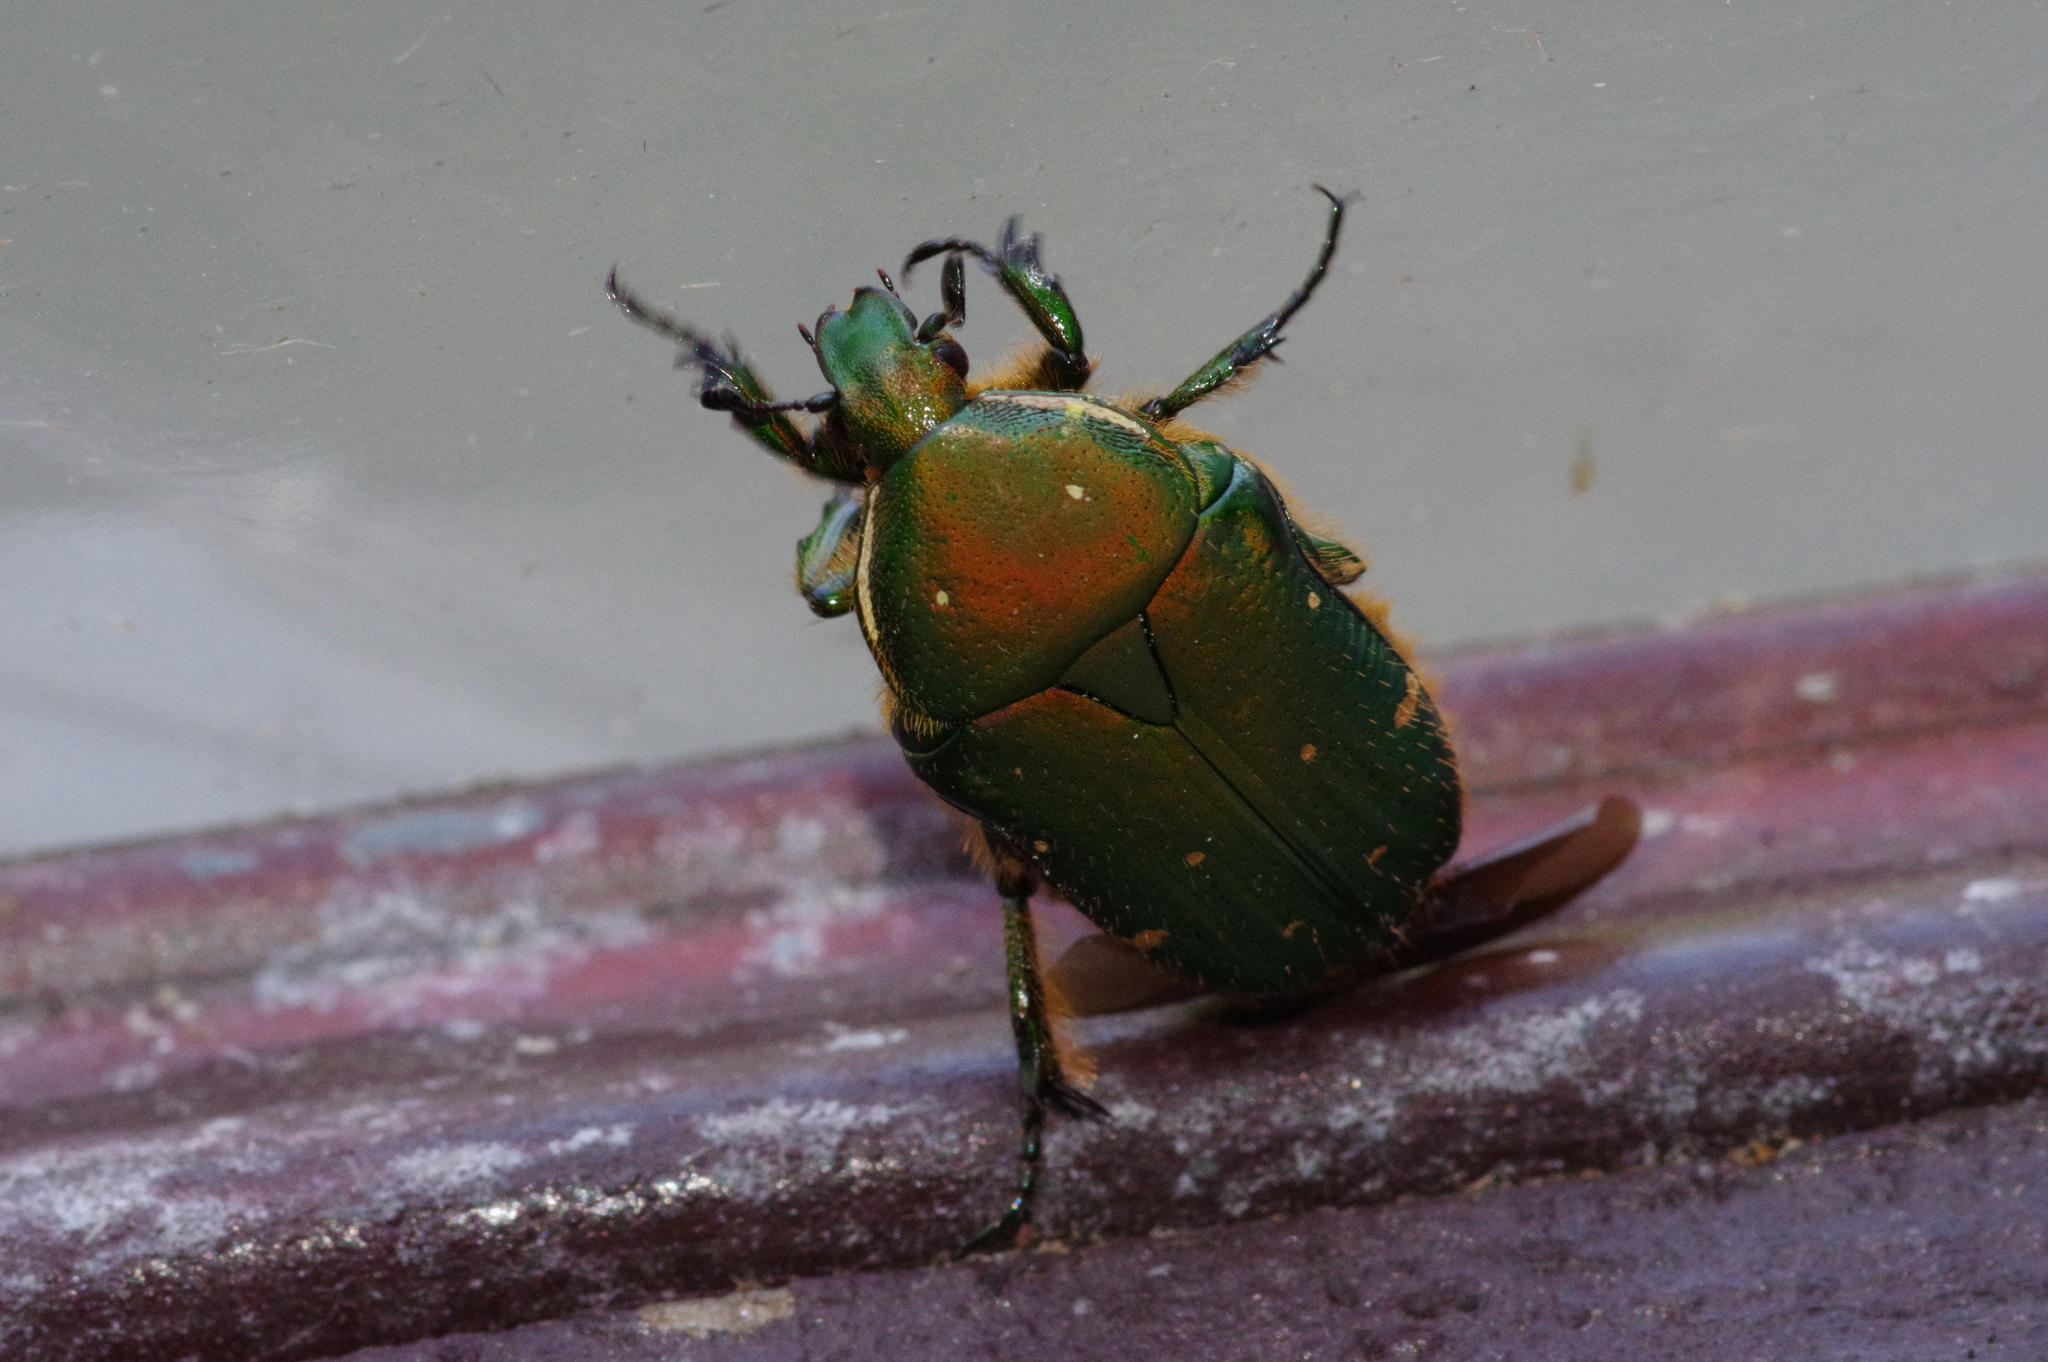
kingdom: Animalia
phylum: Arthropoda
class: Insecta
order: Coleoptera
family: Scarabaeidae
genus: Gametis
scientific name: Gametis forticula
